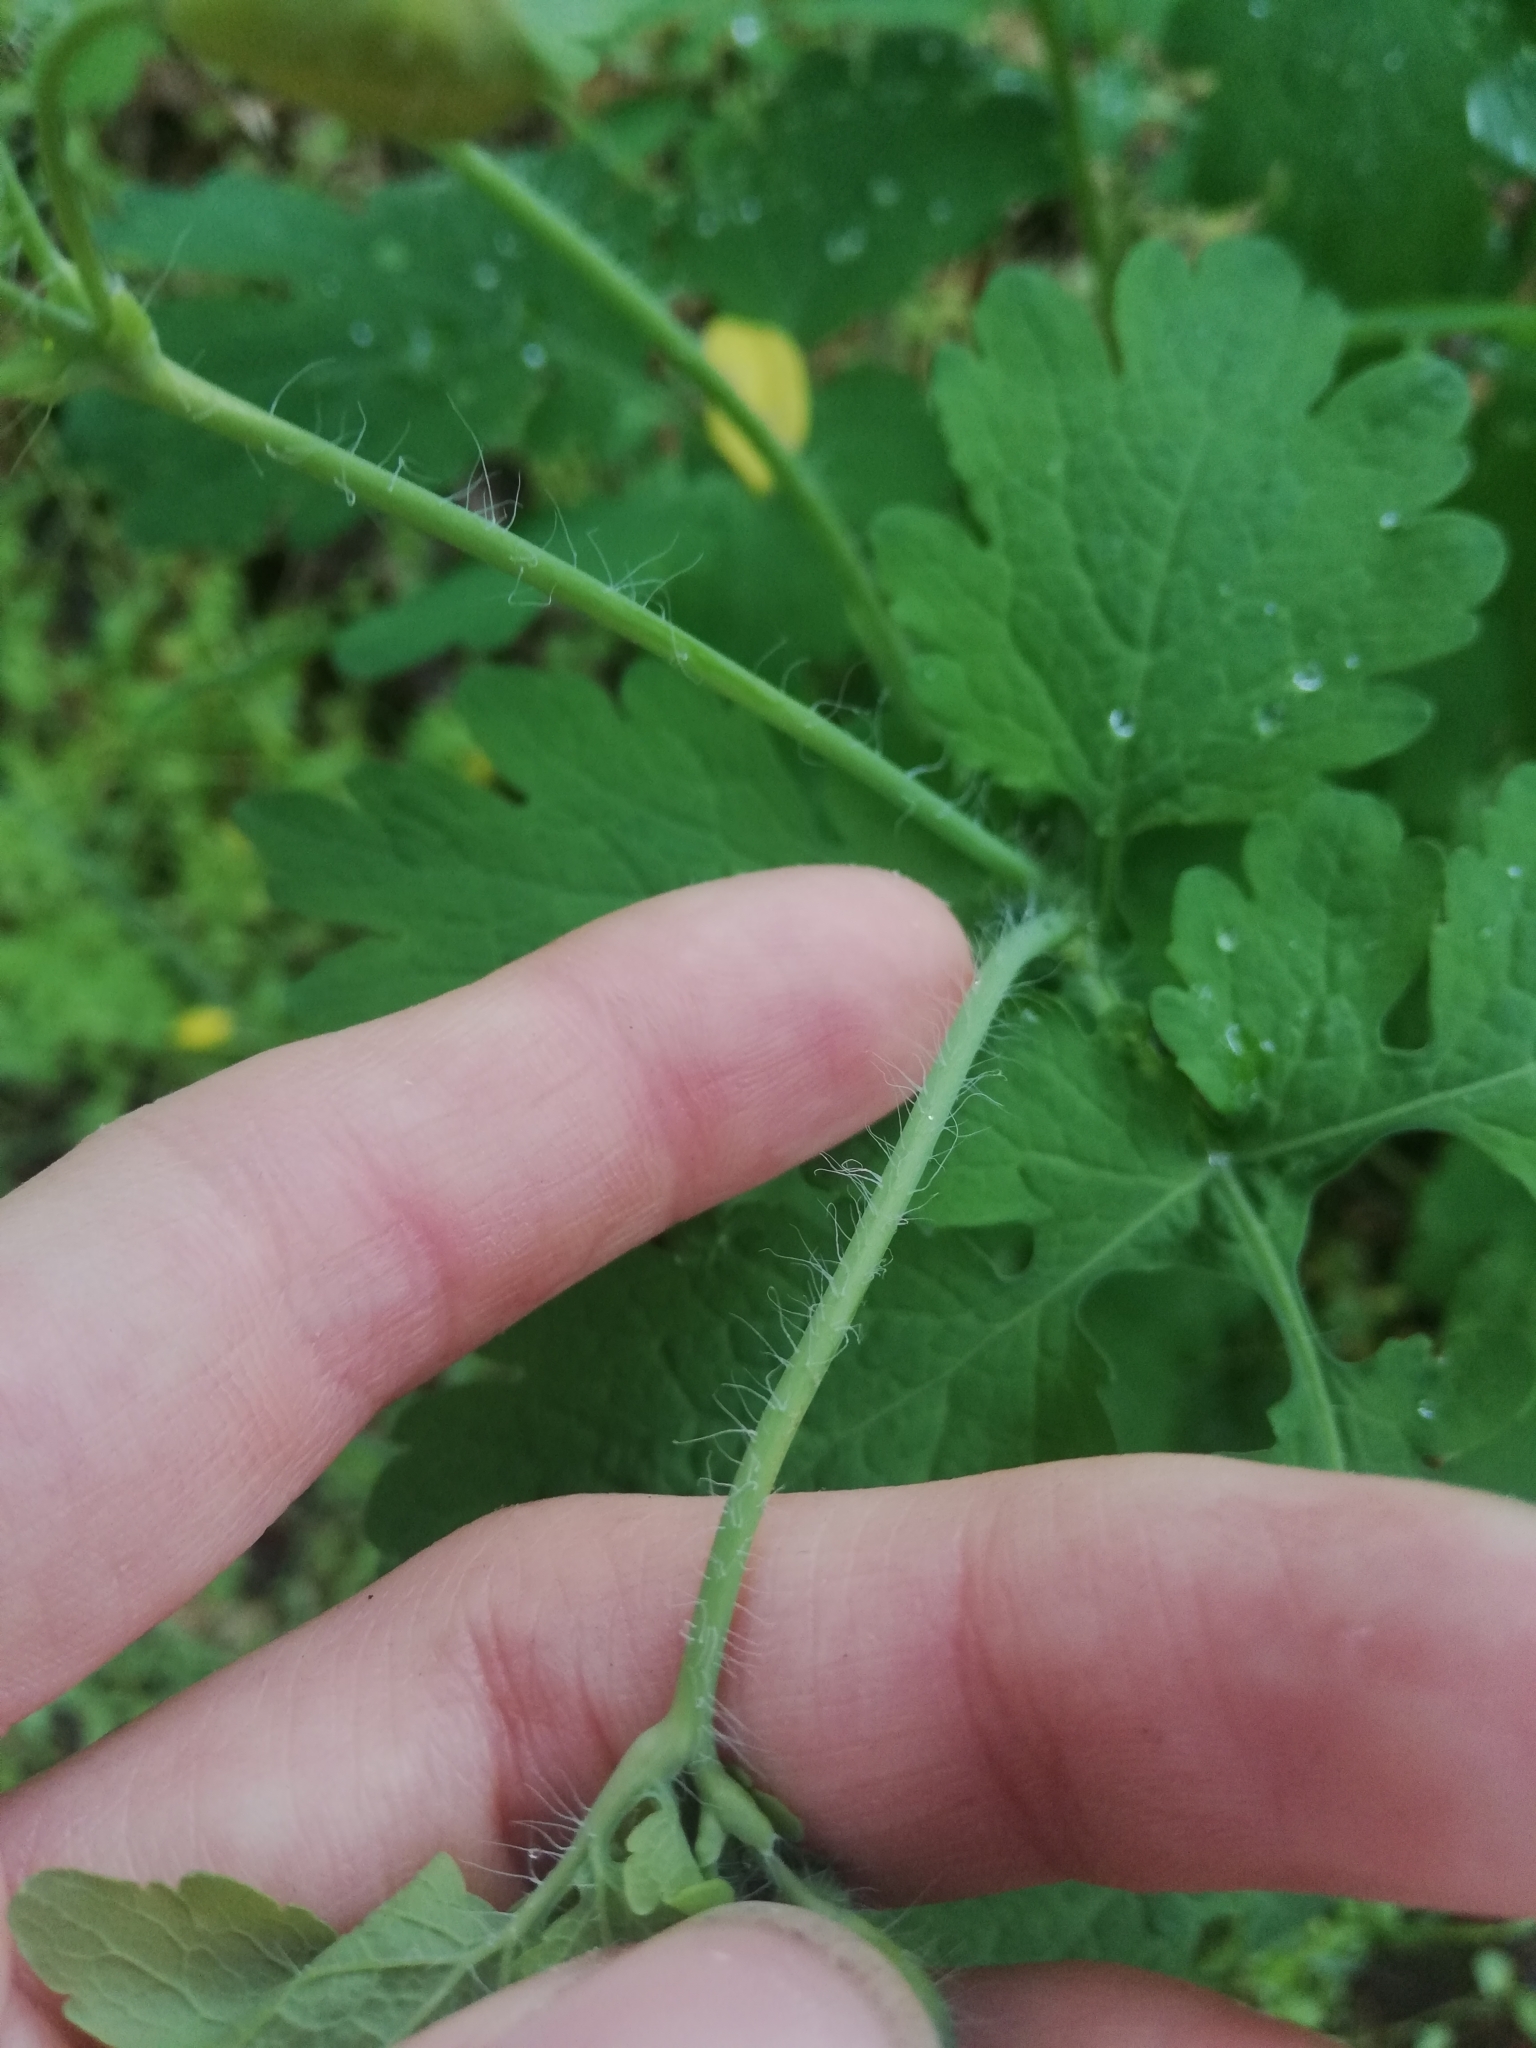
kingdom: Plantae
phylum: Tracheophyta
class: Magnoliopsida
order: Ranunculales
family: Papaveraceae
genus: Chelidonium
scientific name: Chelidonium majus
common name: Greater celandine
